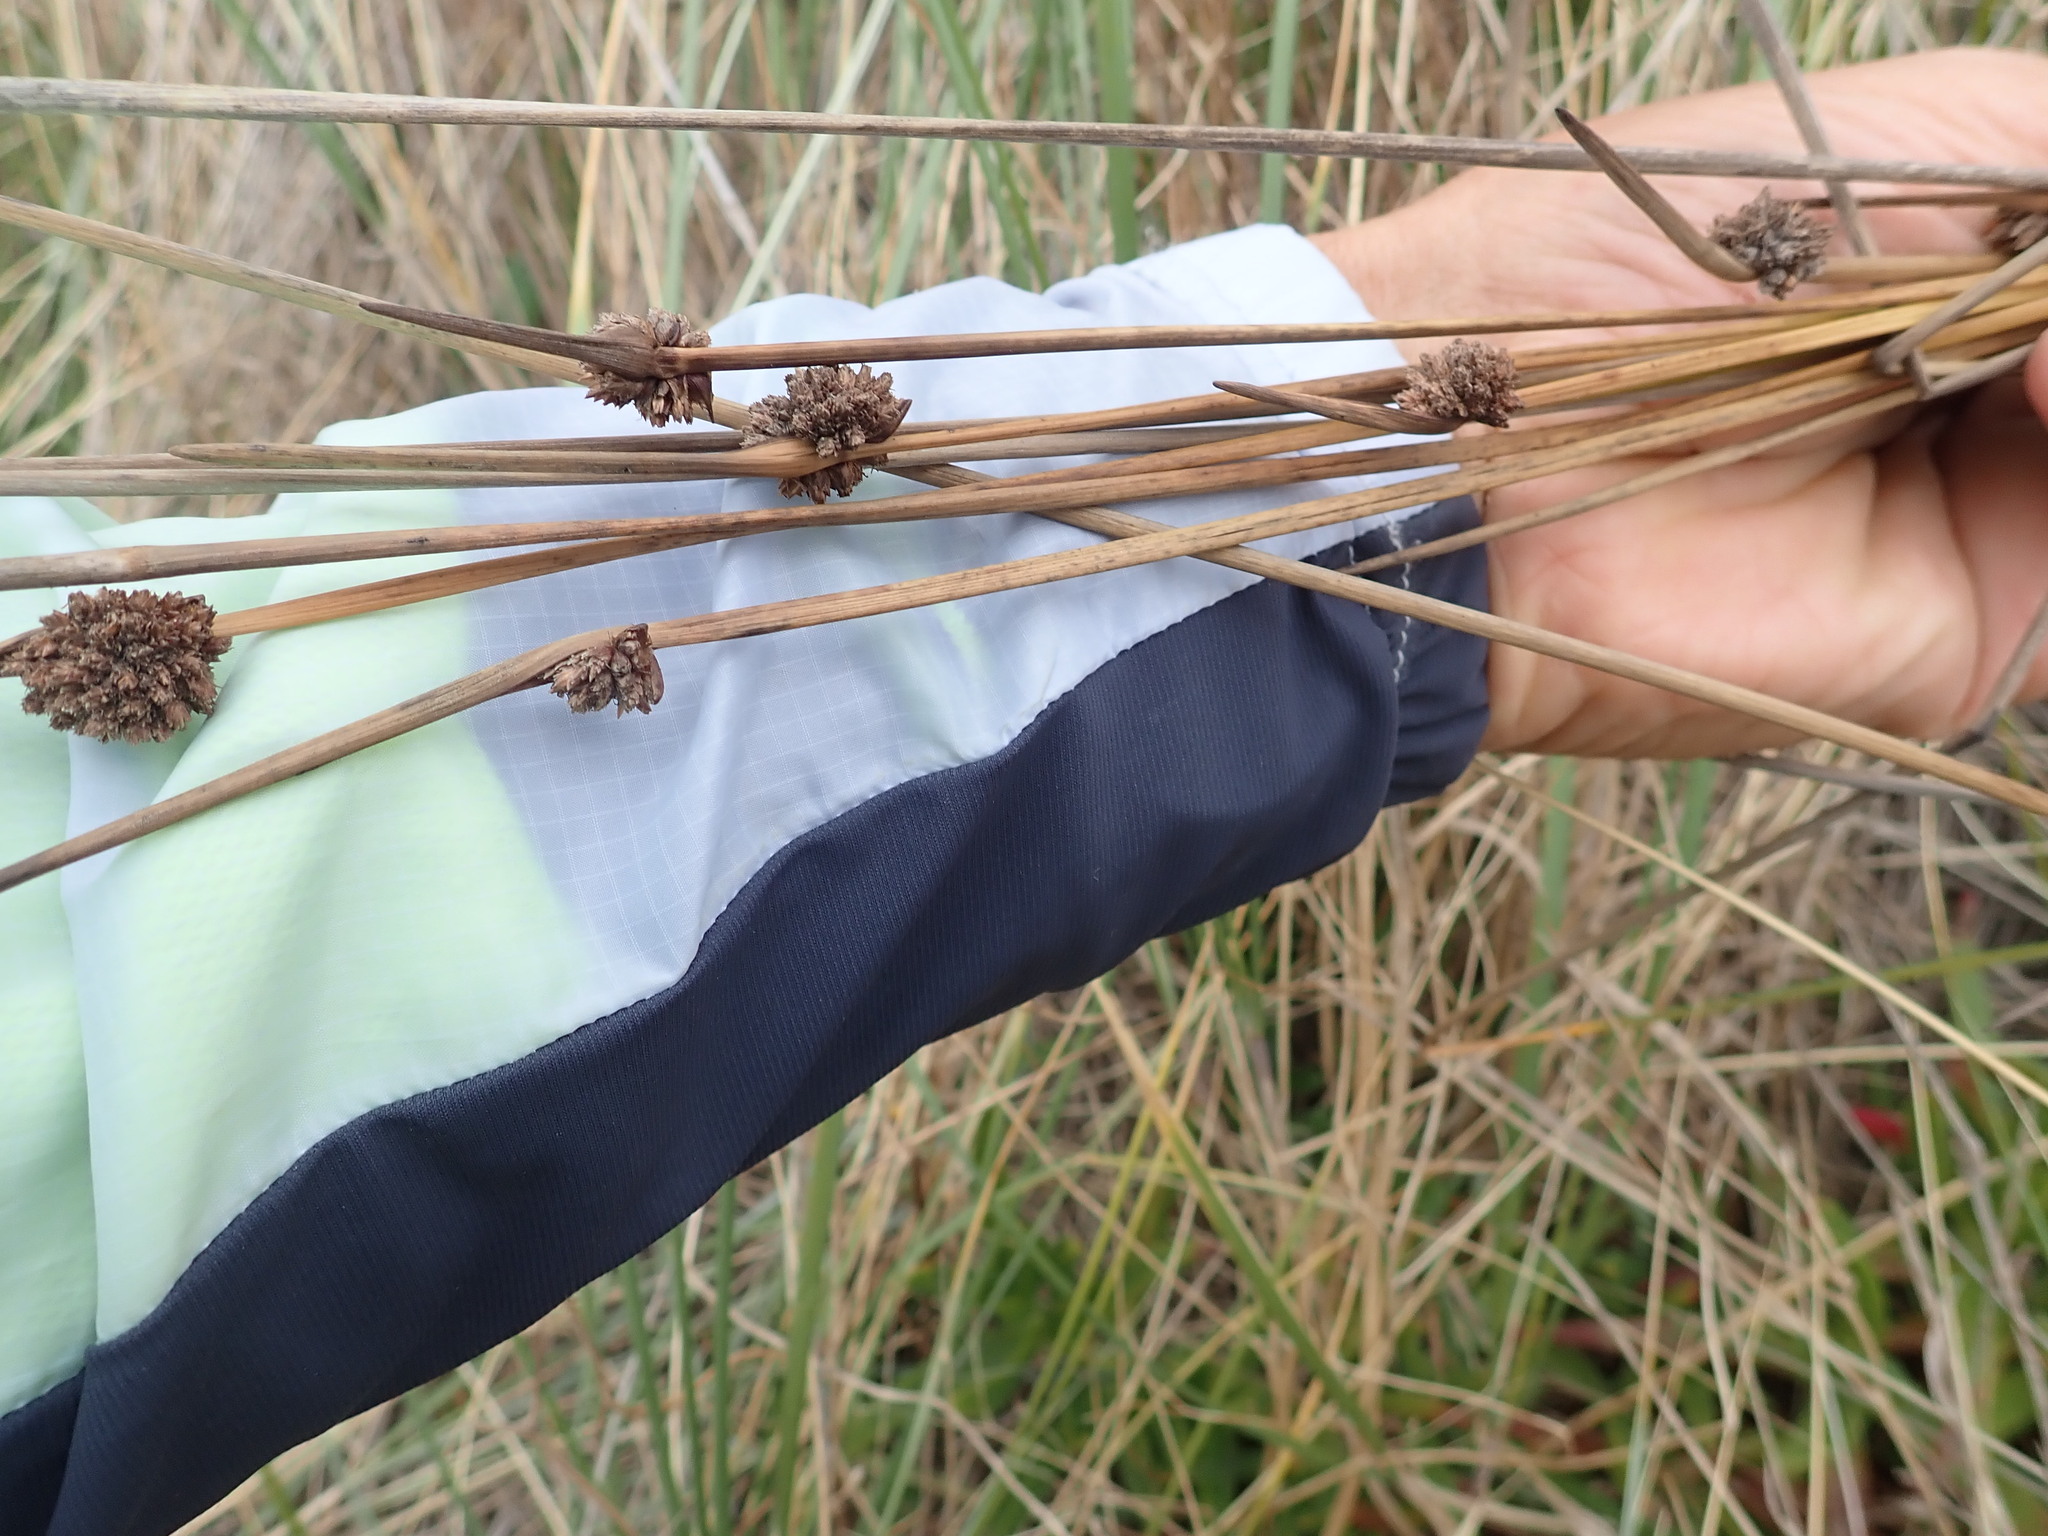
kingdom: Plantae
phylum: Tracheophyta
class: Liliopsida
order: Poales
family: Cyperaceae
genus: Ficinia
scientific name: Ficinia nodosa
